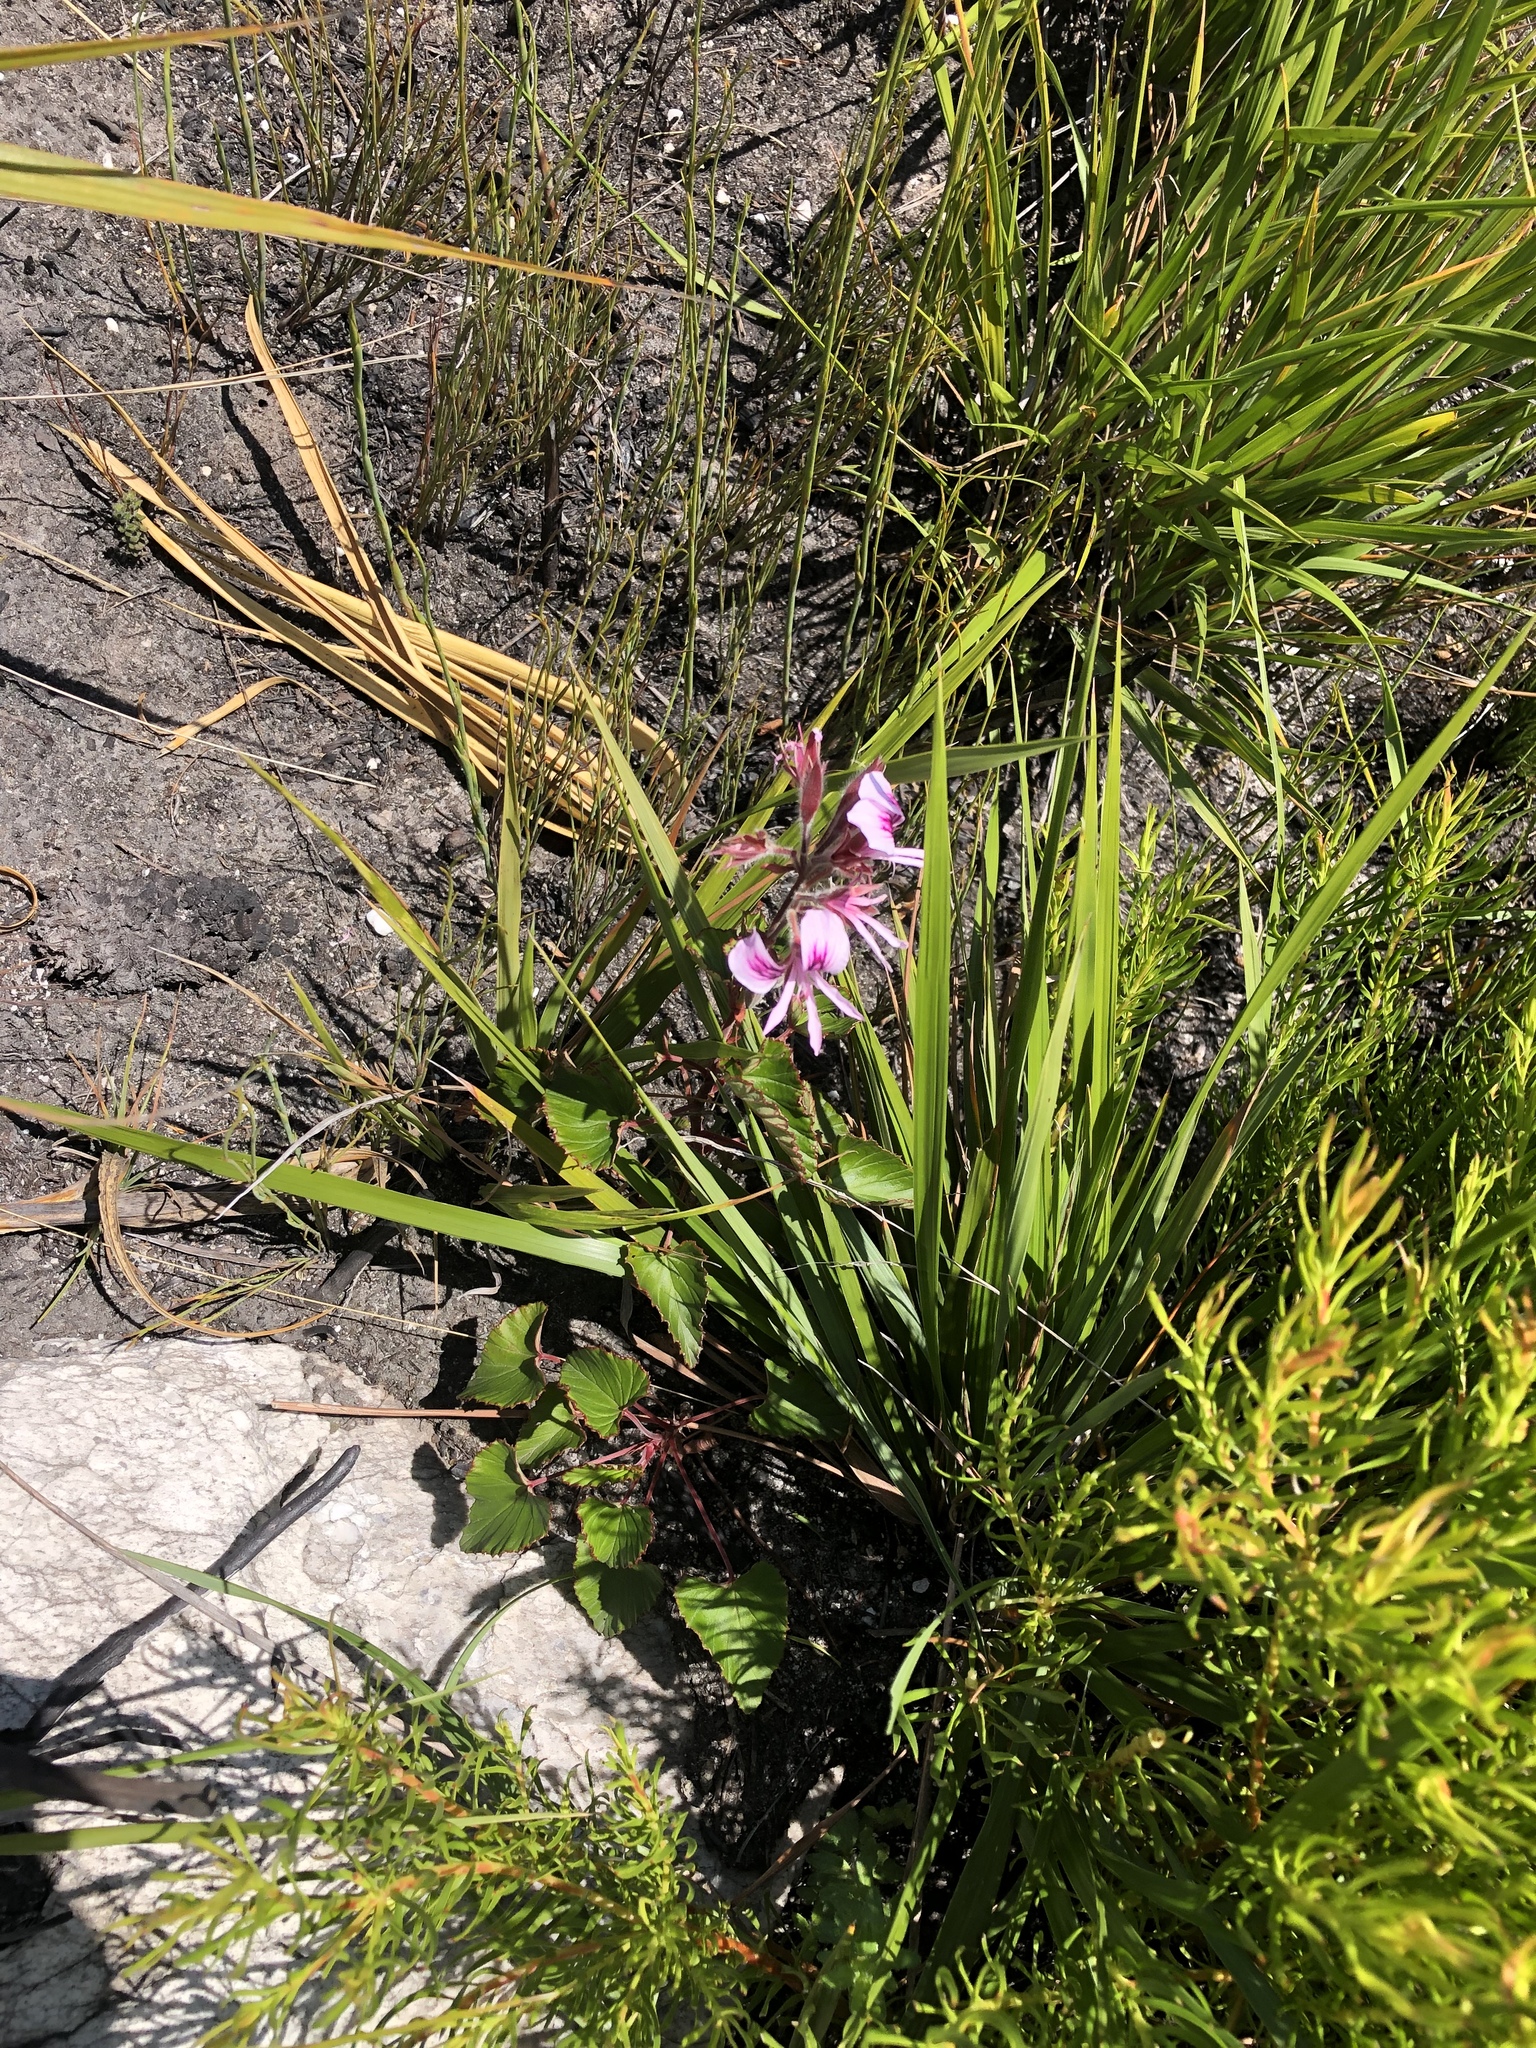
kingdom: Plantae
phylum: Tracheophyta
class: Magnoliopsida
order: Geraniales
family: Geraniaceae
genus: Pelargonium
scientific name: Pelargonium cordifolium
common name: Heart-leaf pelargonium
